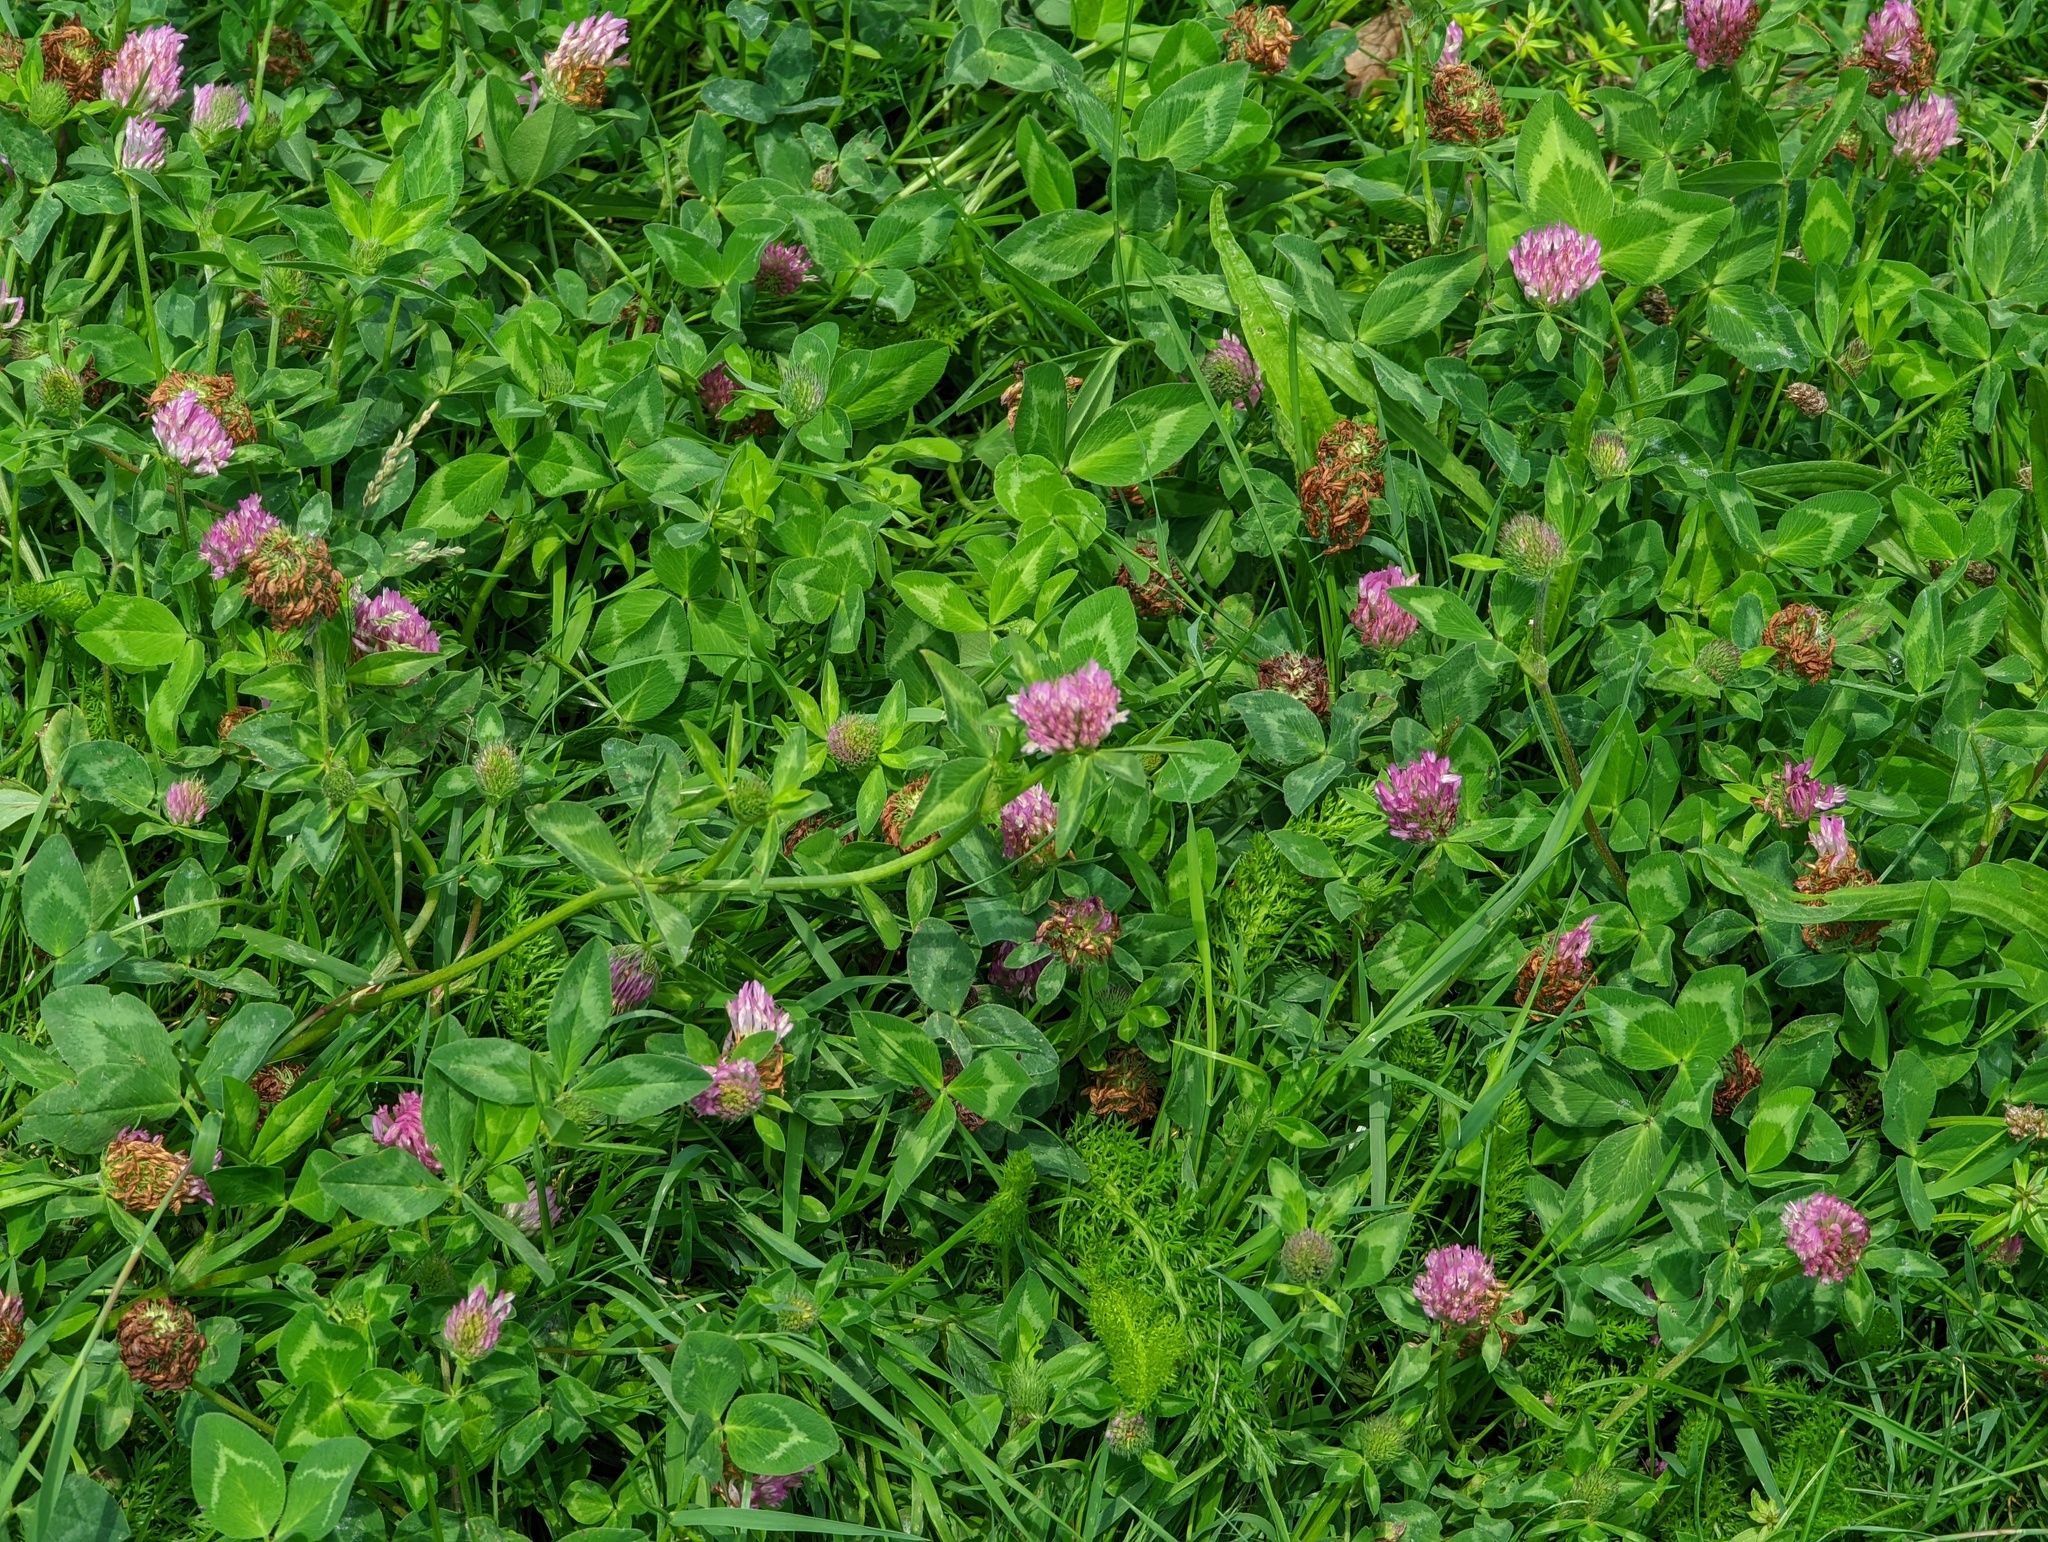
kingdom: Plantae
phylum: Tracheophyta
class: Magnoliopsida
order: Fabales
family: Fabaceae
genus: Trifolium
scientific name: Trifolium pratense
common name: Red clover
